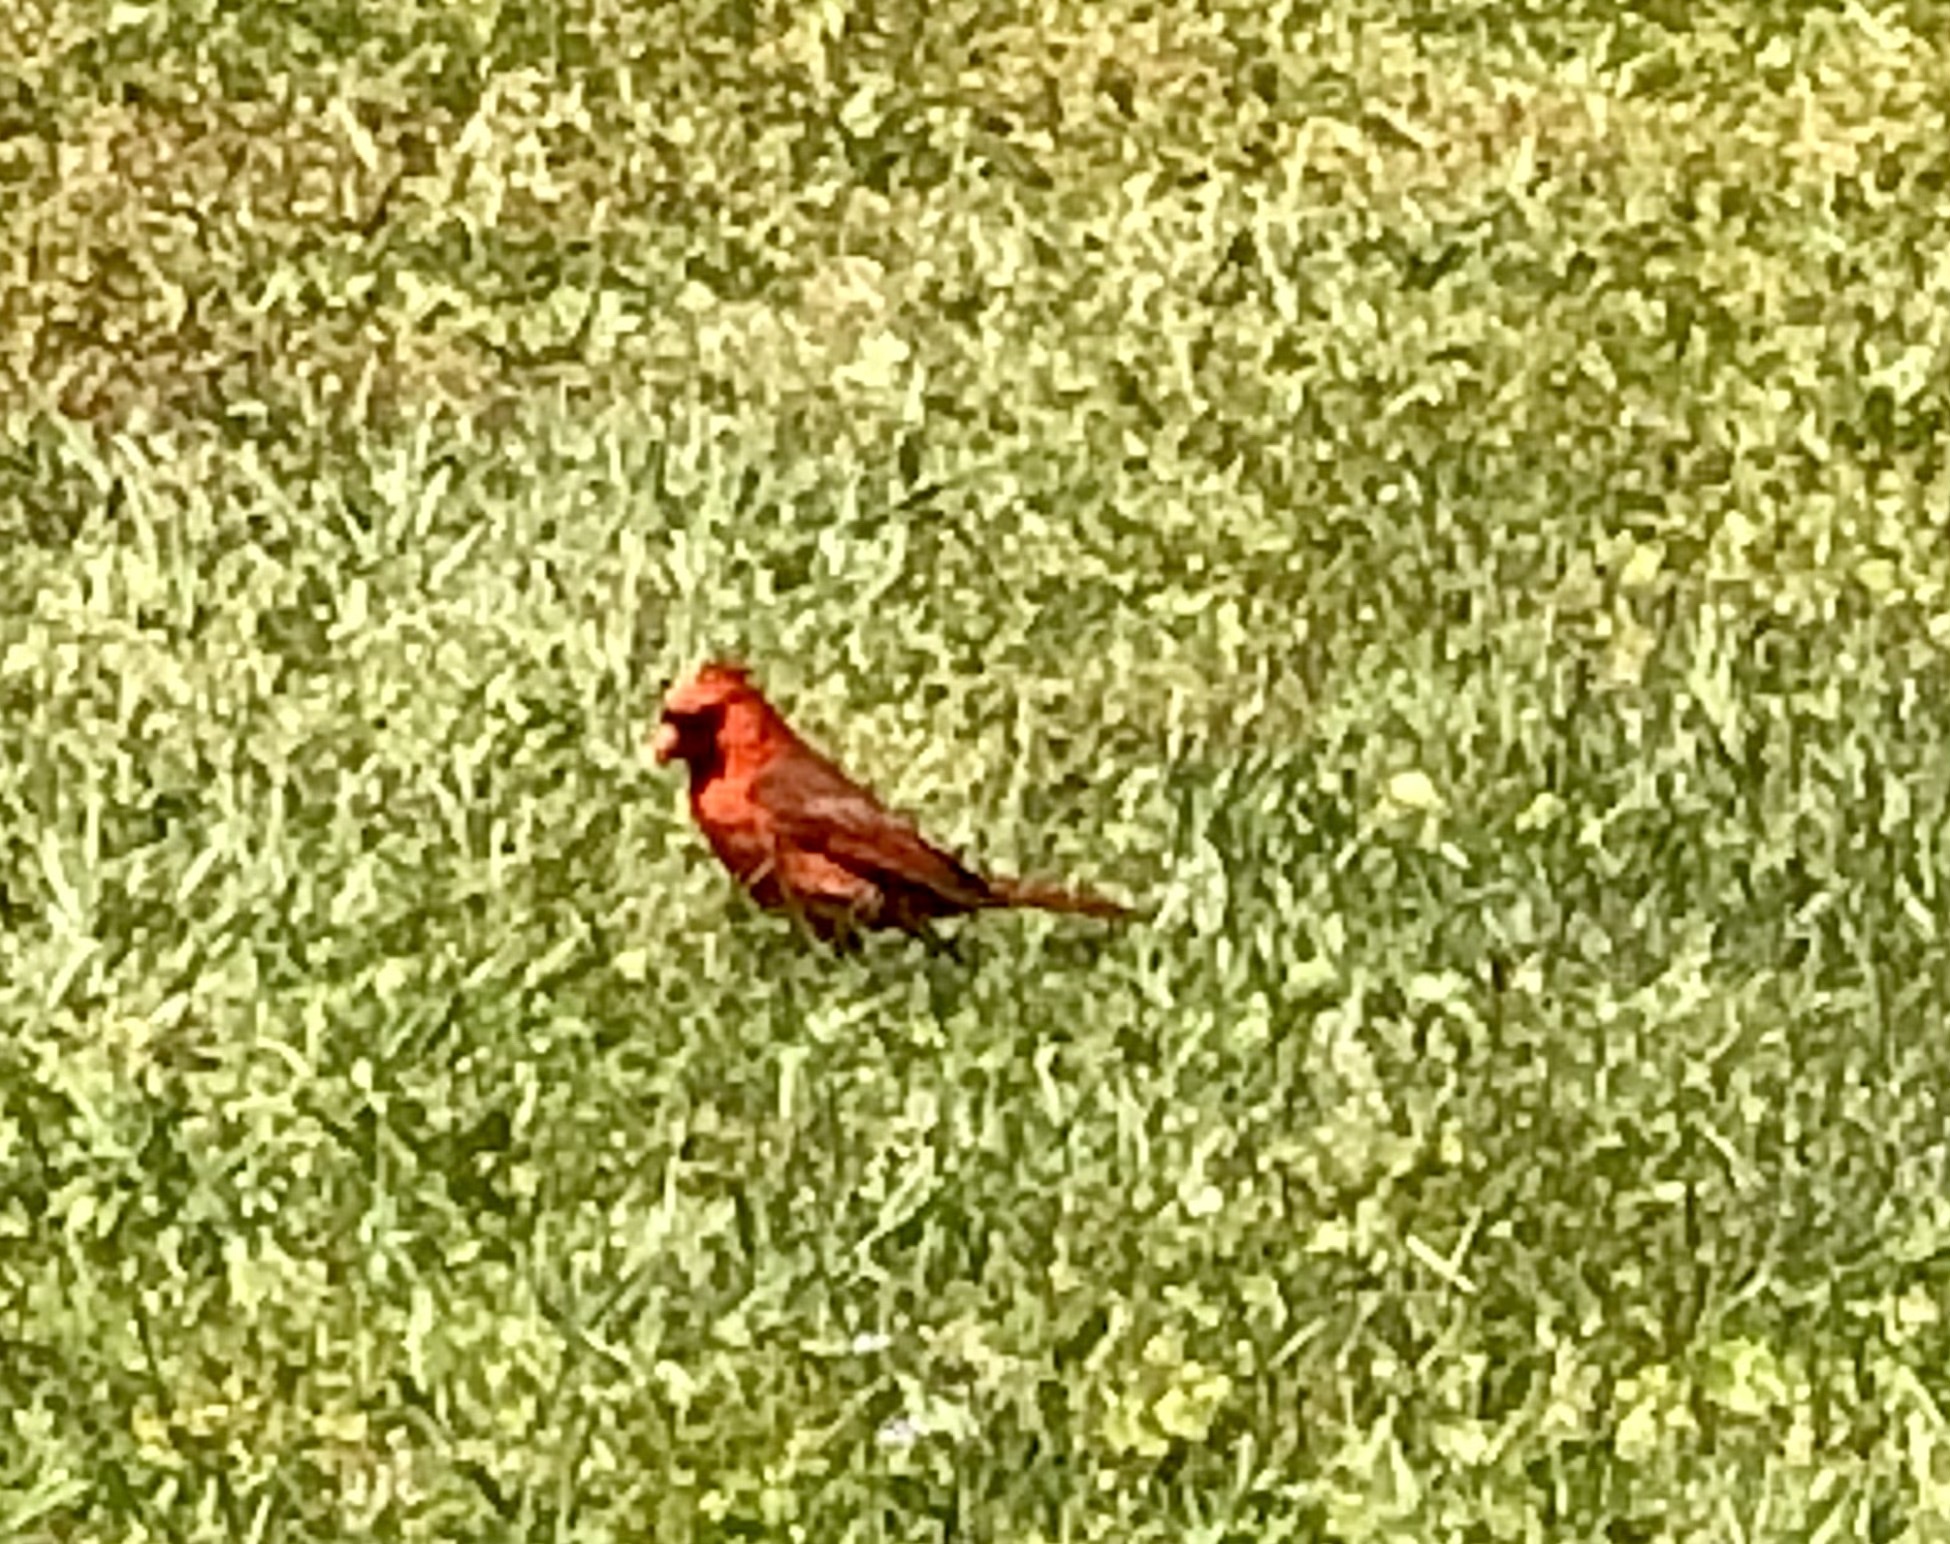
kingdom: Animalia
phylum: Chordata
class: Aves
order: Passeriformes
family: Cardinalidae
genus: Cardinalis
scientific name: Cardinalis cardinalis
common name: Northern cardinal
